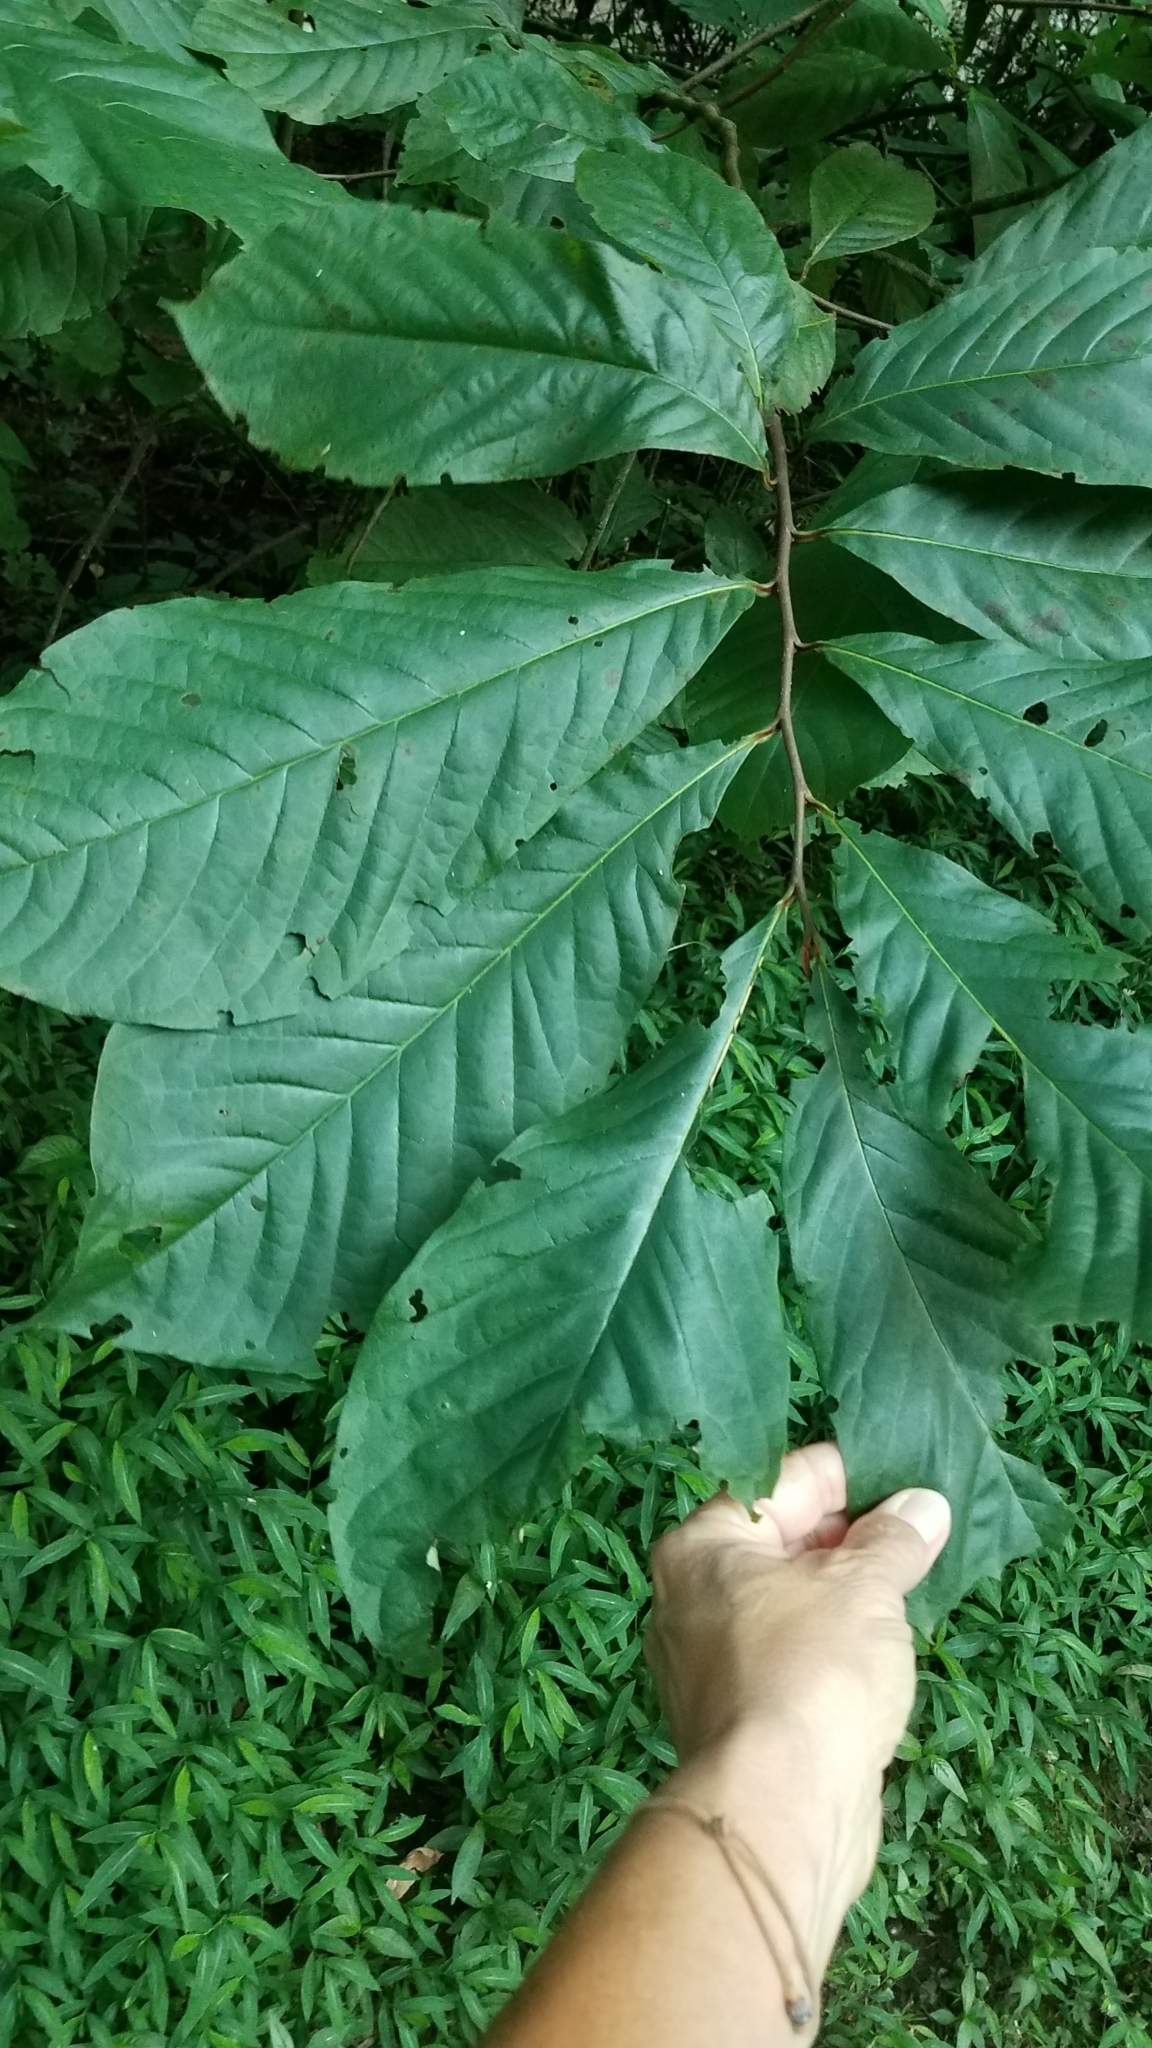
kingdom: Plantae
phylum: Tracheophyta
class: Magnoliopsida
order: Magnoliales
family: Annonaceae
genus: Asimina
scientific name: Asimina triloba
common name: Dog-banana
